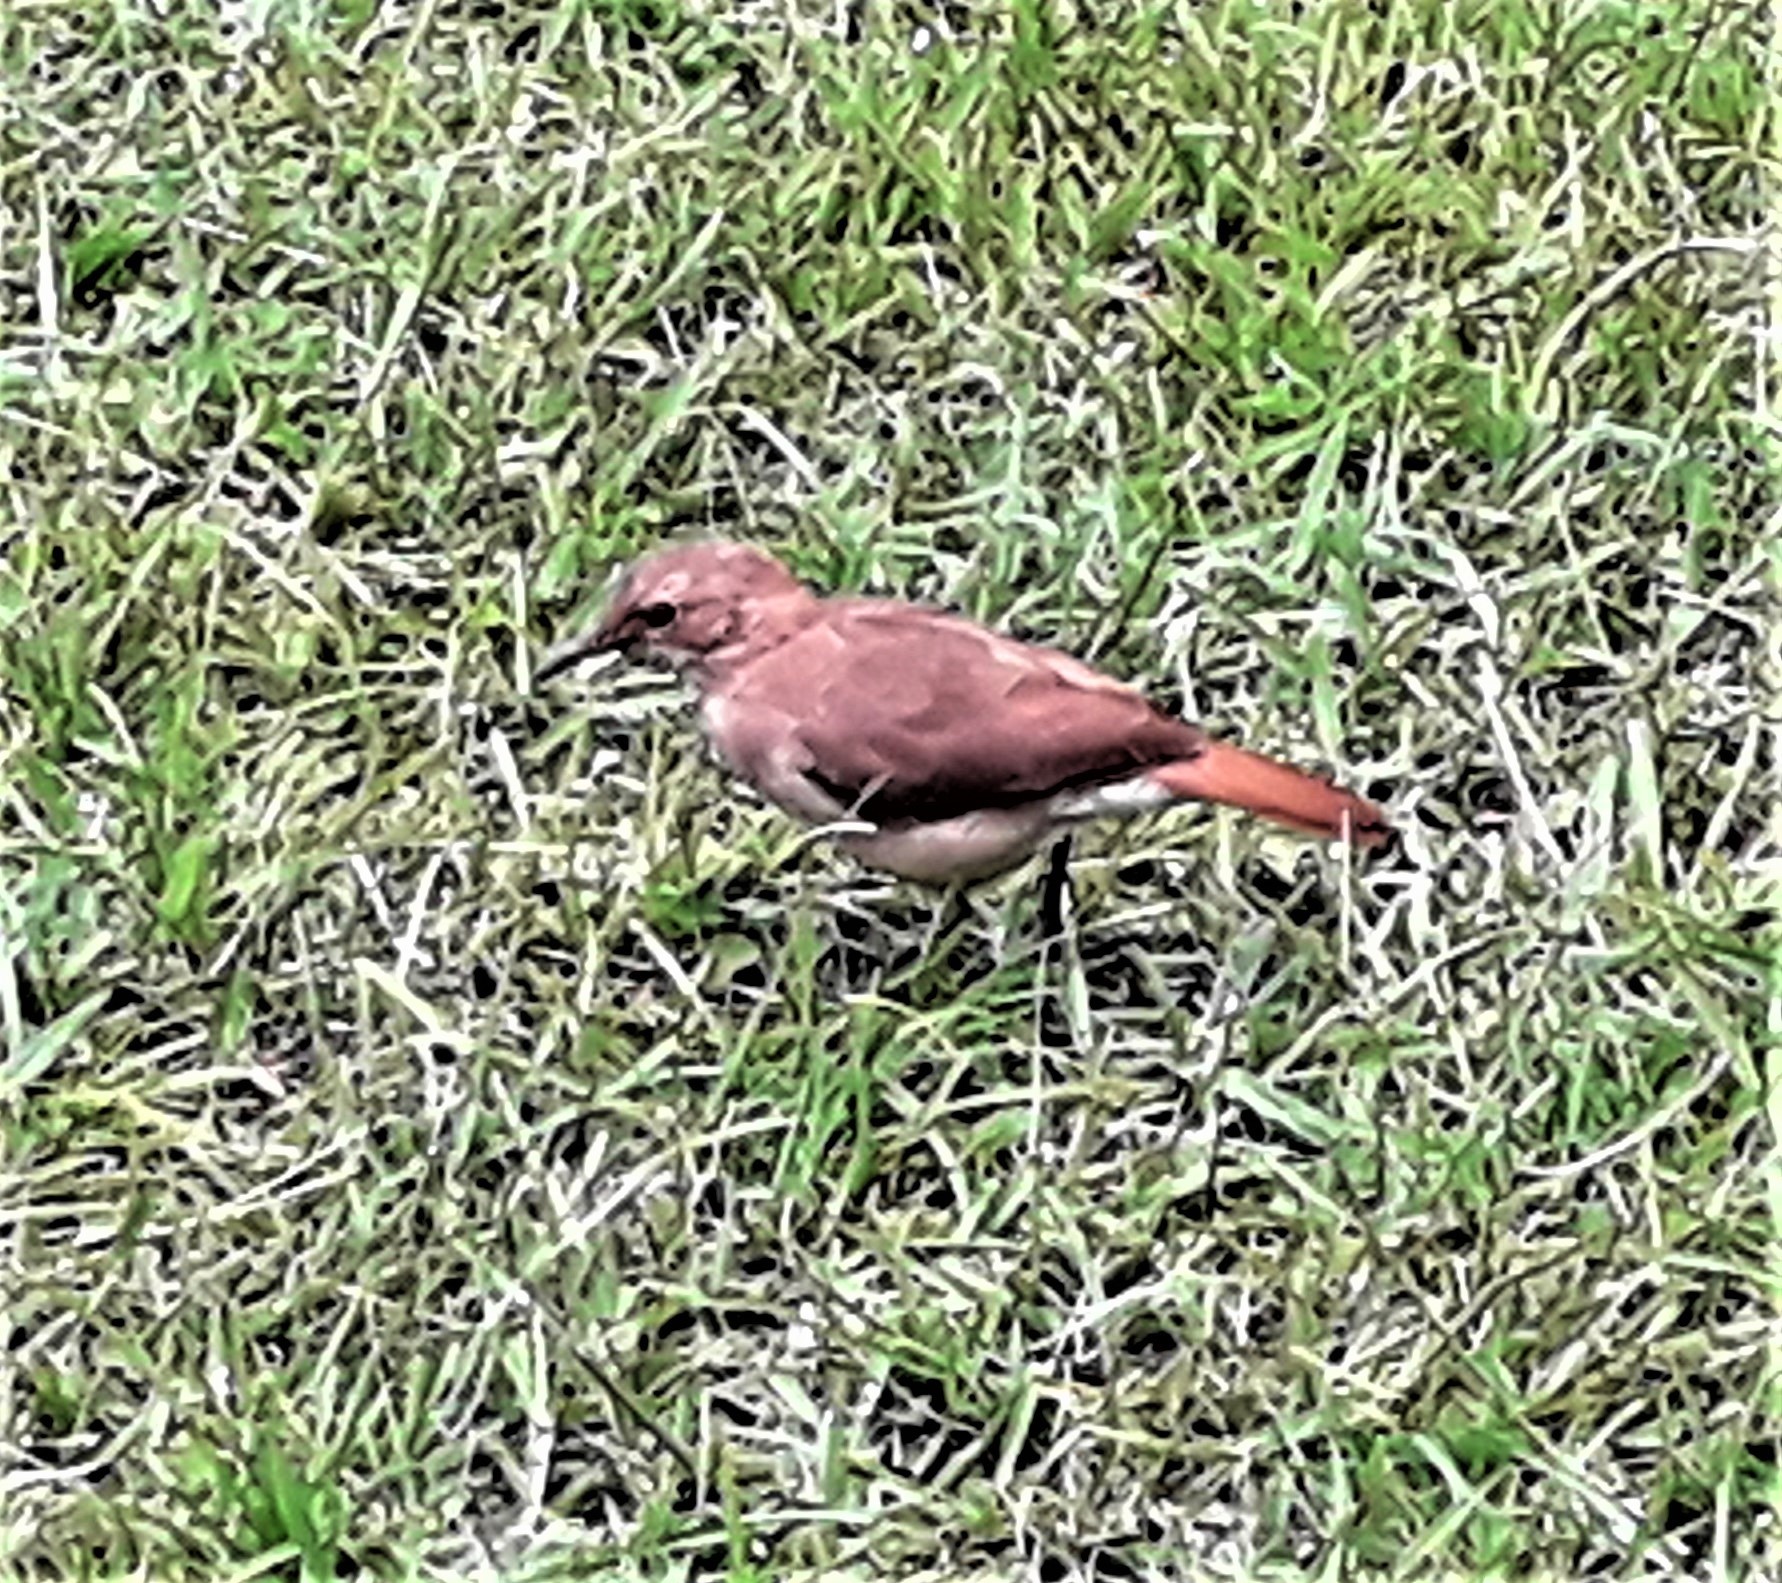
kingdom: Animalia
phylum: Chordata
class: Aves
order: Passeriformes
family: Furnariidae
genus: Furnarius
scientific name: Furnarius rufus
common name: Rufous hornero
